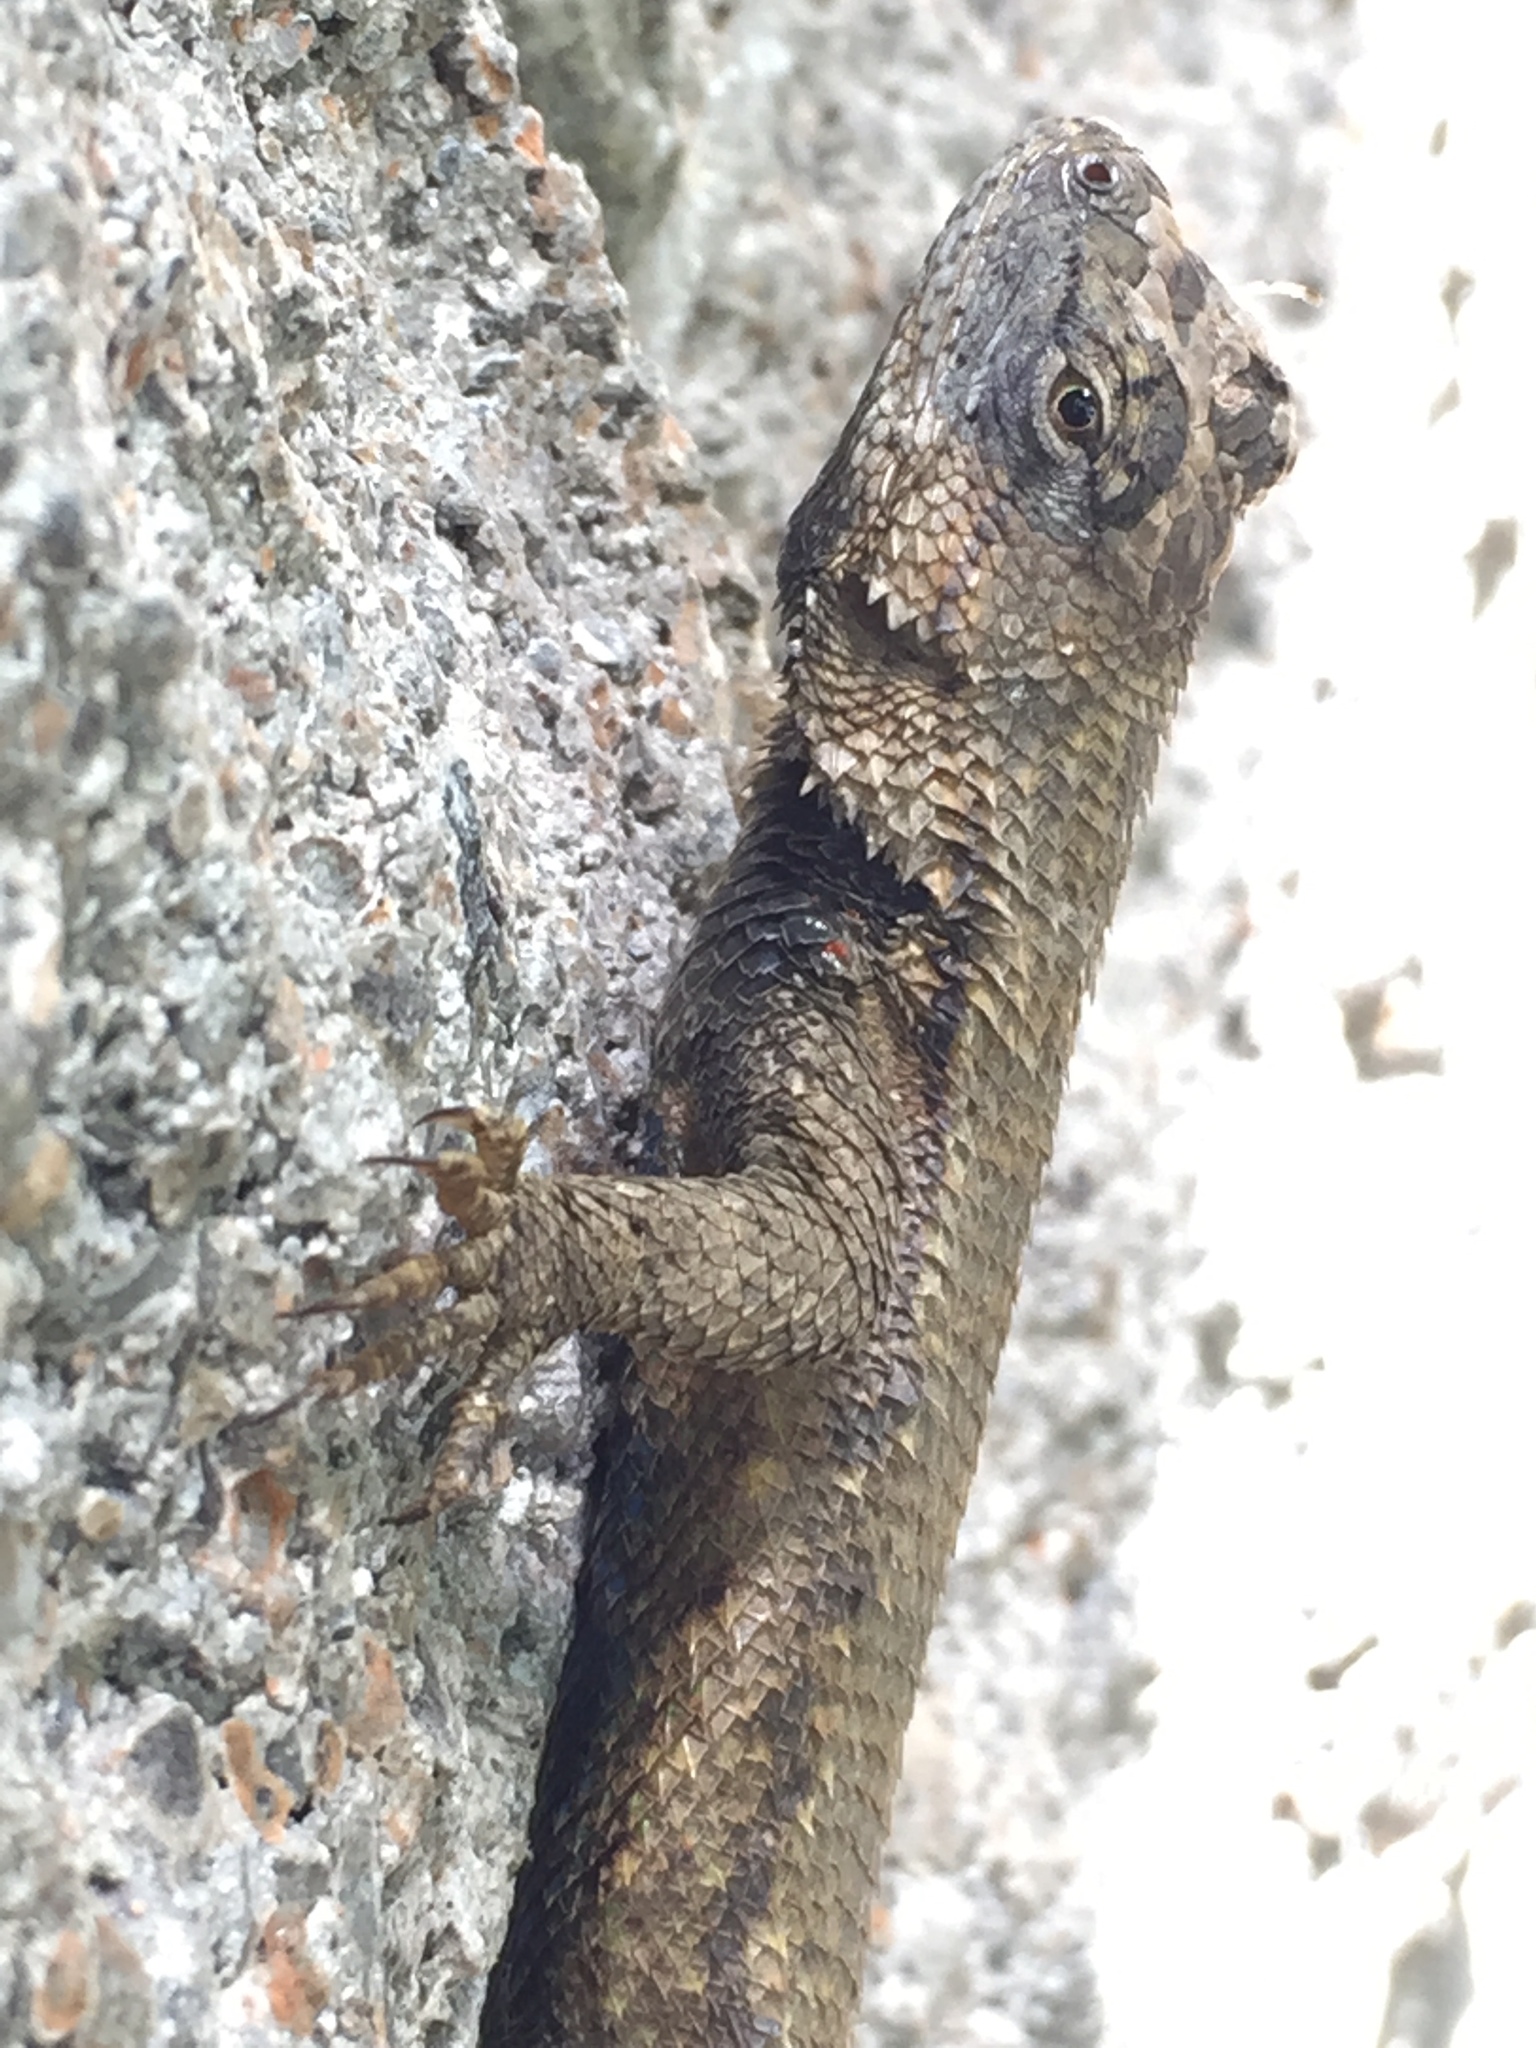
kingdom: Animalia
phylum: Chordata
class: Squamata
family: Phrynosomatidae
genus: Sceloporus
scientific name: Sceloporus undulatus
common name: Eastern fence lizard
